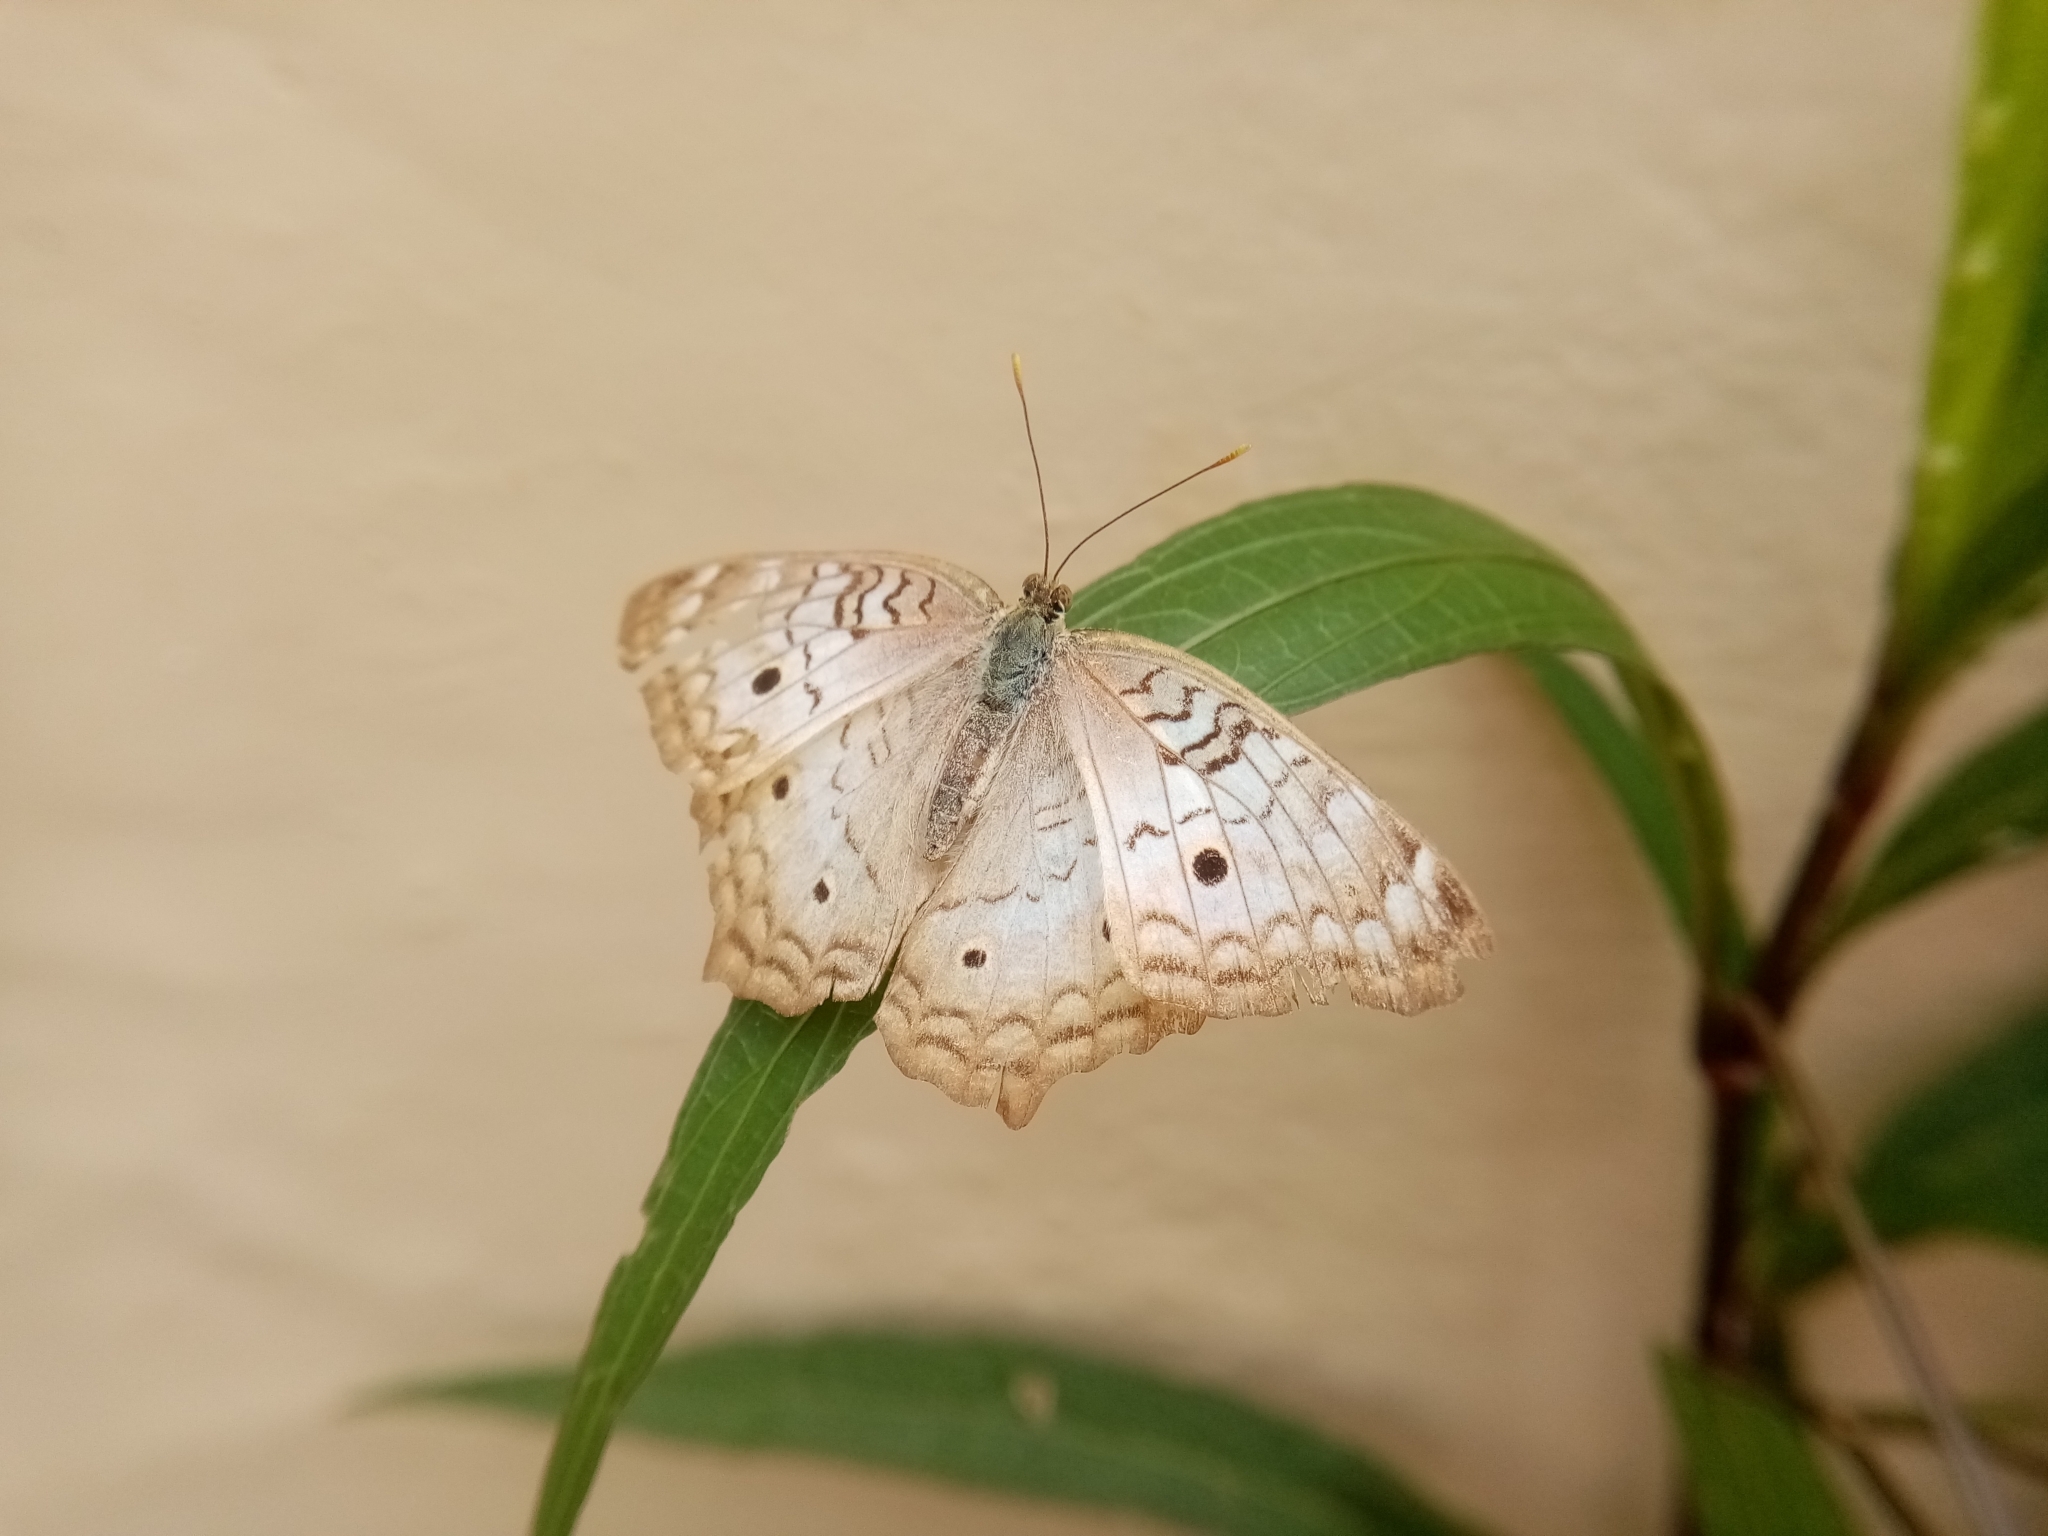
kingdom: Animalia
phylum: Arthropoda
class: Insecta
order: Lepidoptera
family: Nymphalidae
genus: Anartia
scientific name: Anartia jatrophae
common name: White peacock
